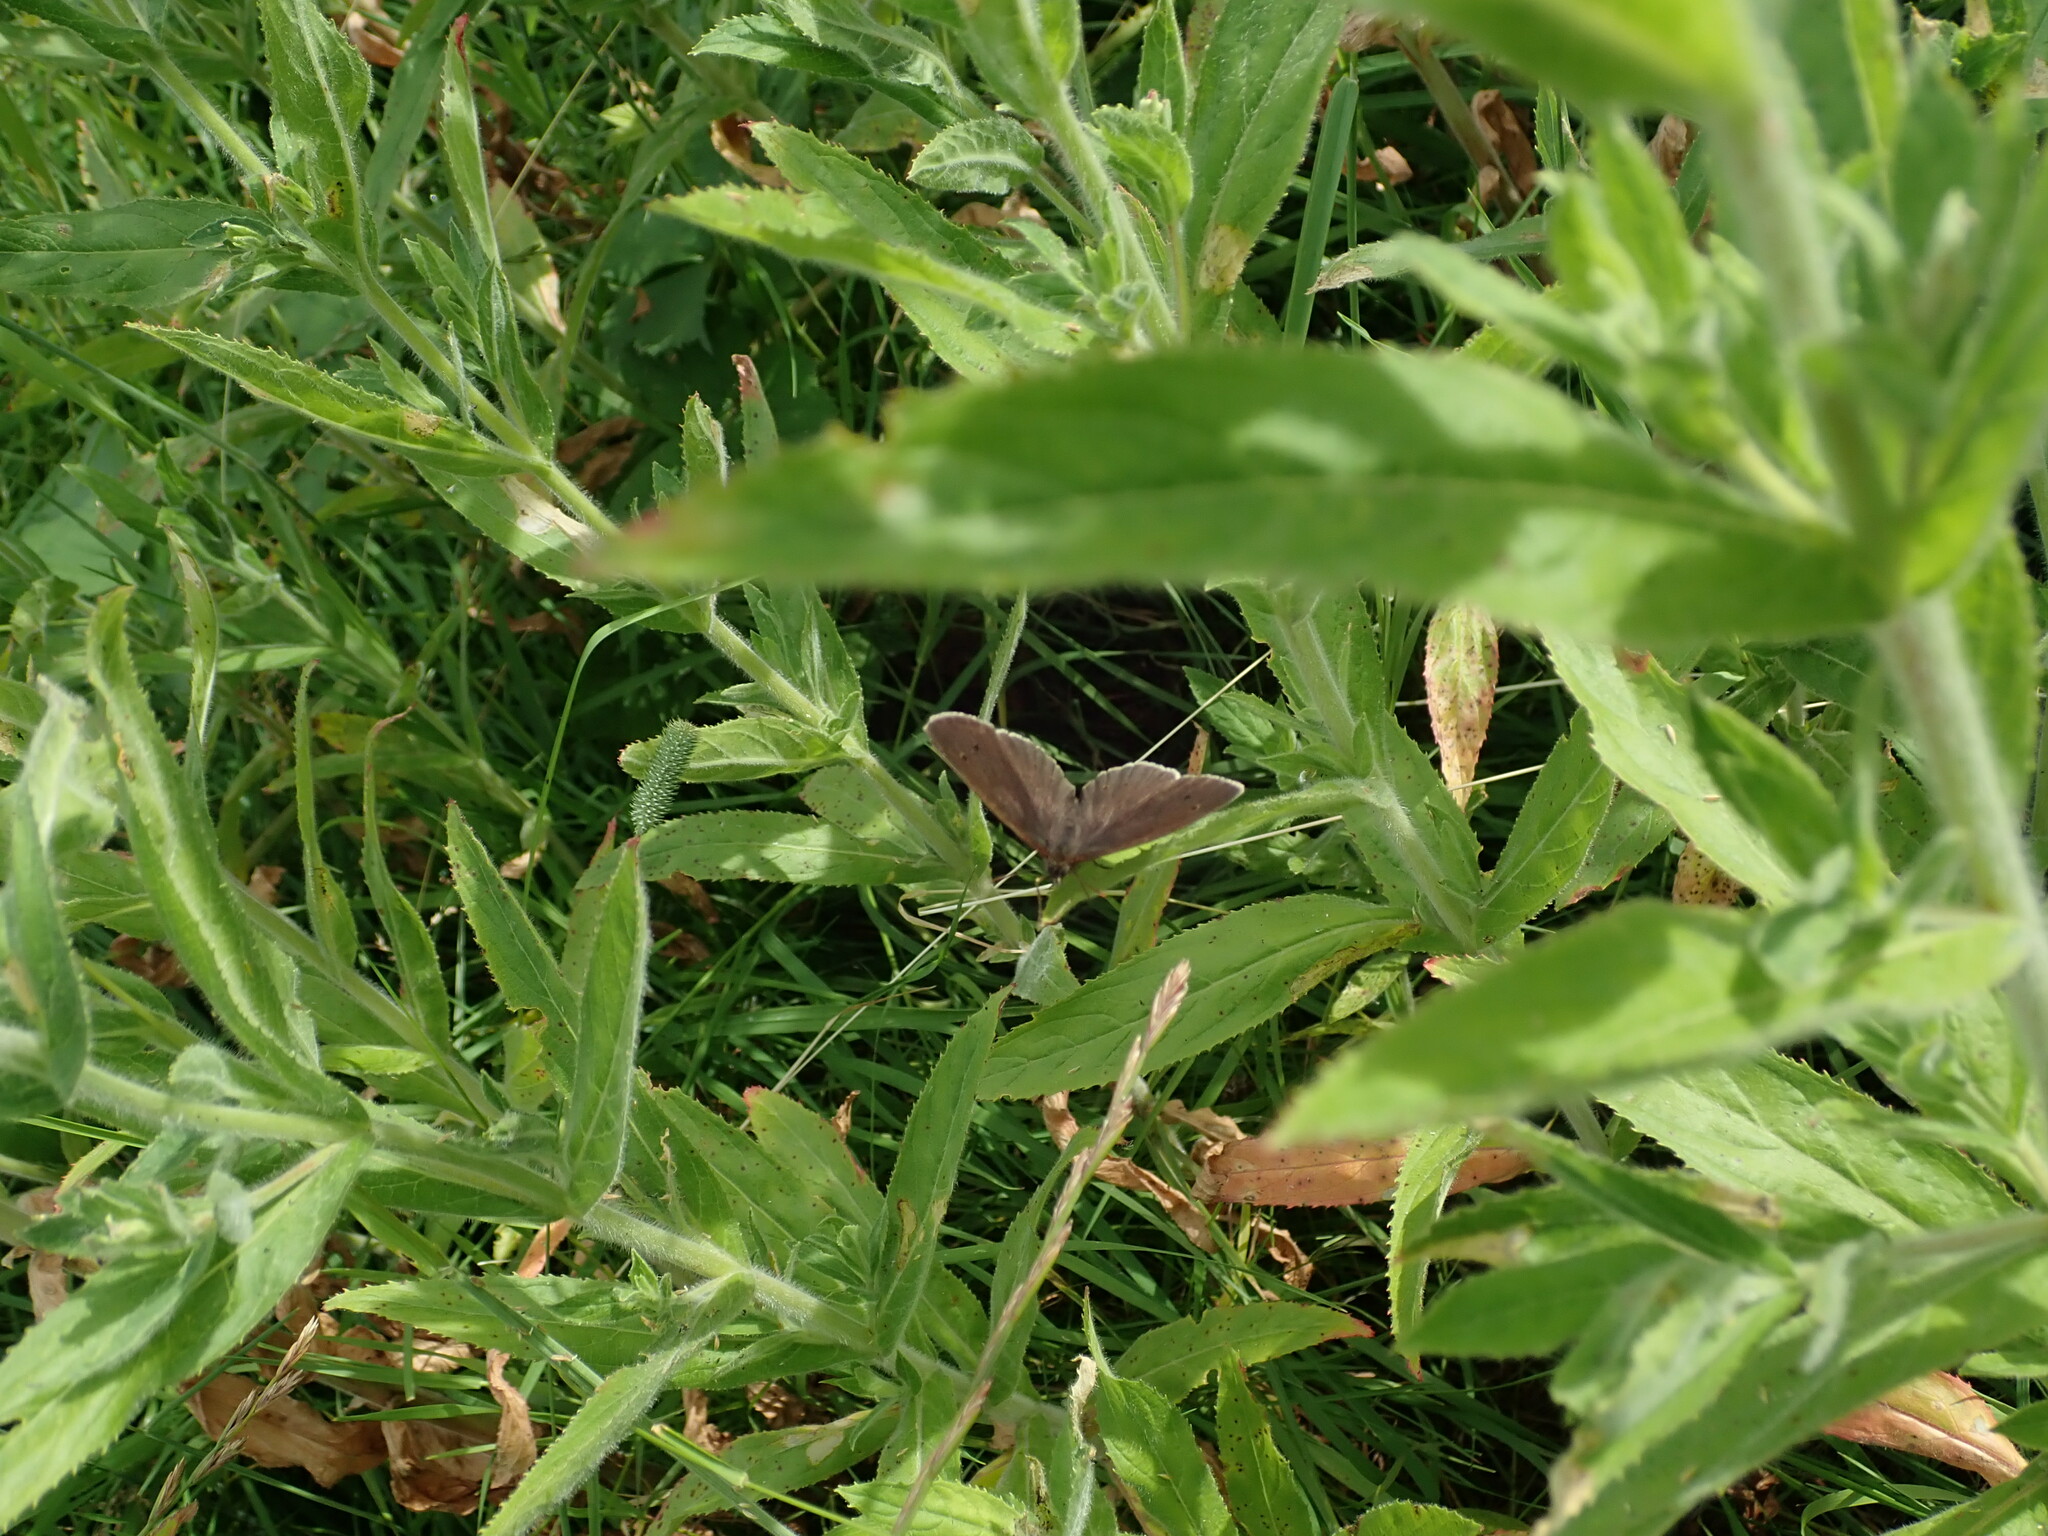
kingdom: Animalia
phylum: Arthropoda
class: Insecta
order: Lepidoptera
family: Nymphalidae
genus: Aphantopus
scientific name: Aphantopus hyperantus
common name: Ringlet
